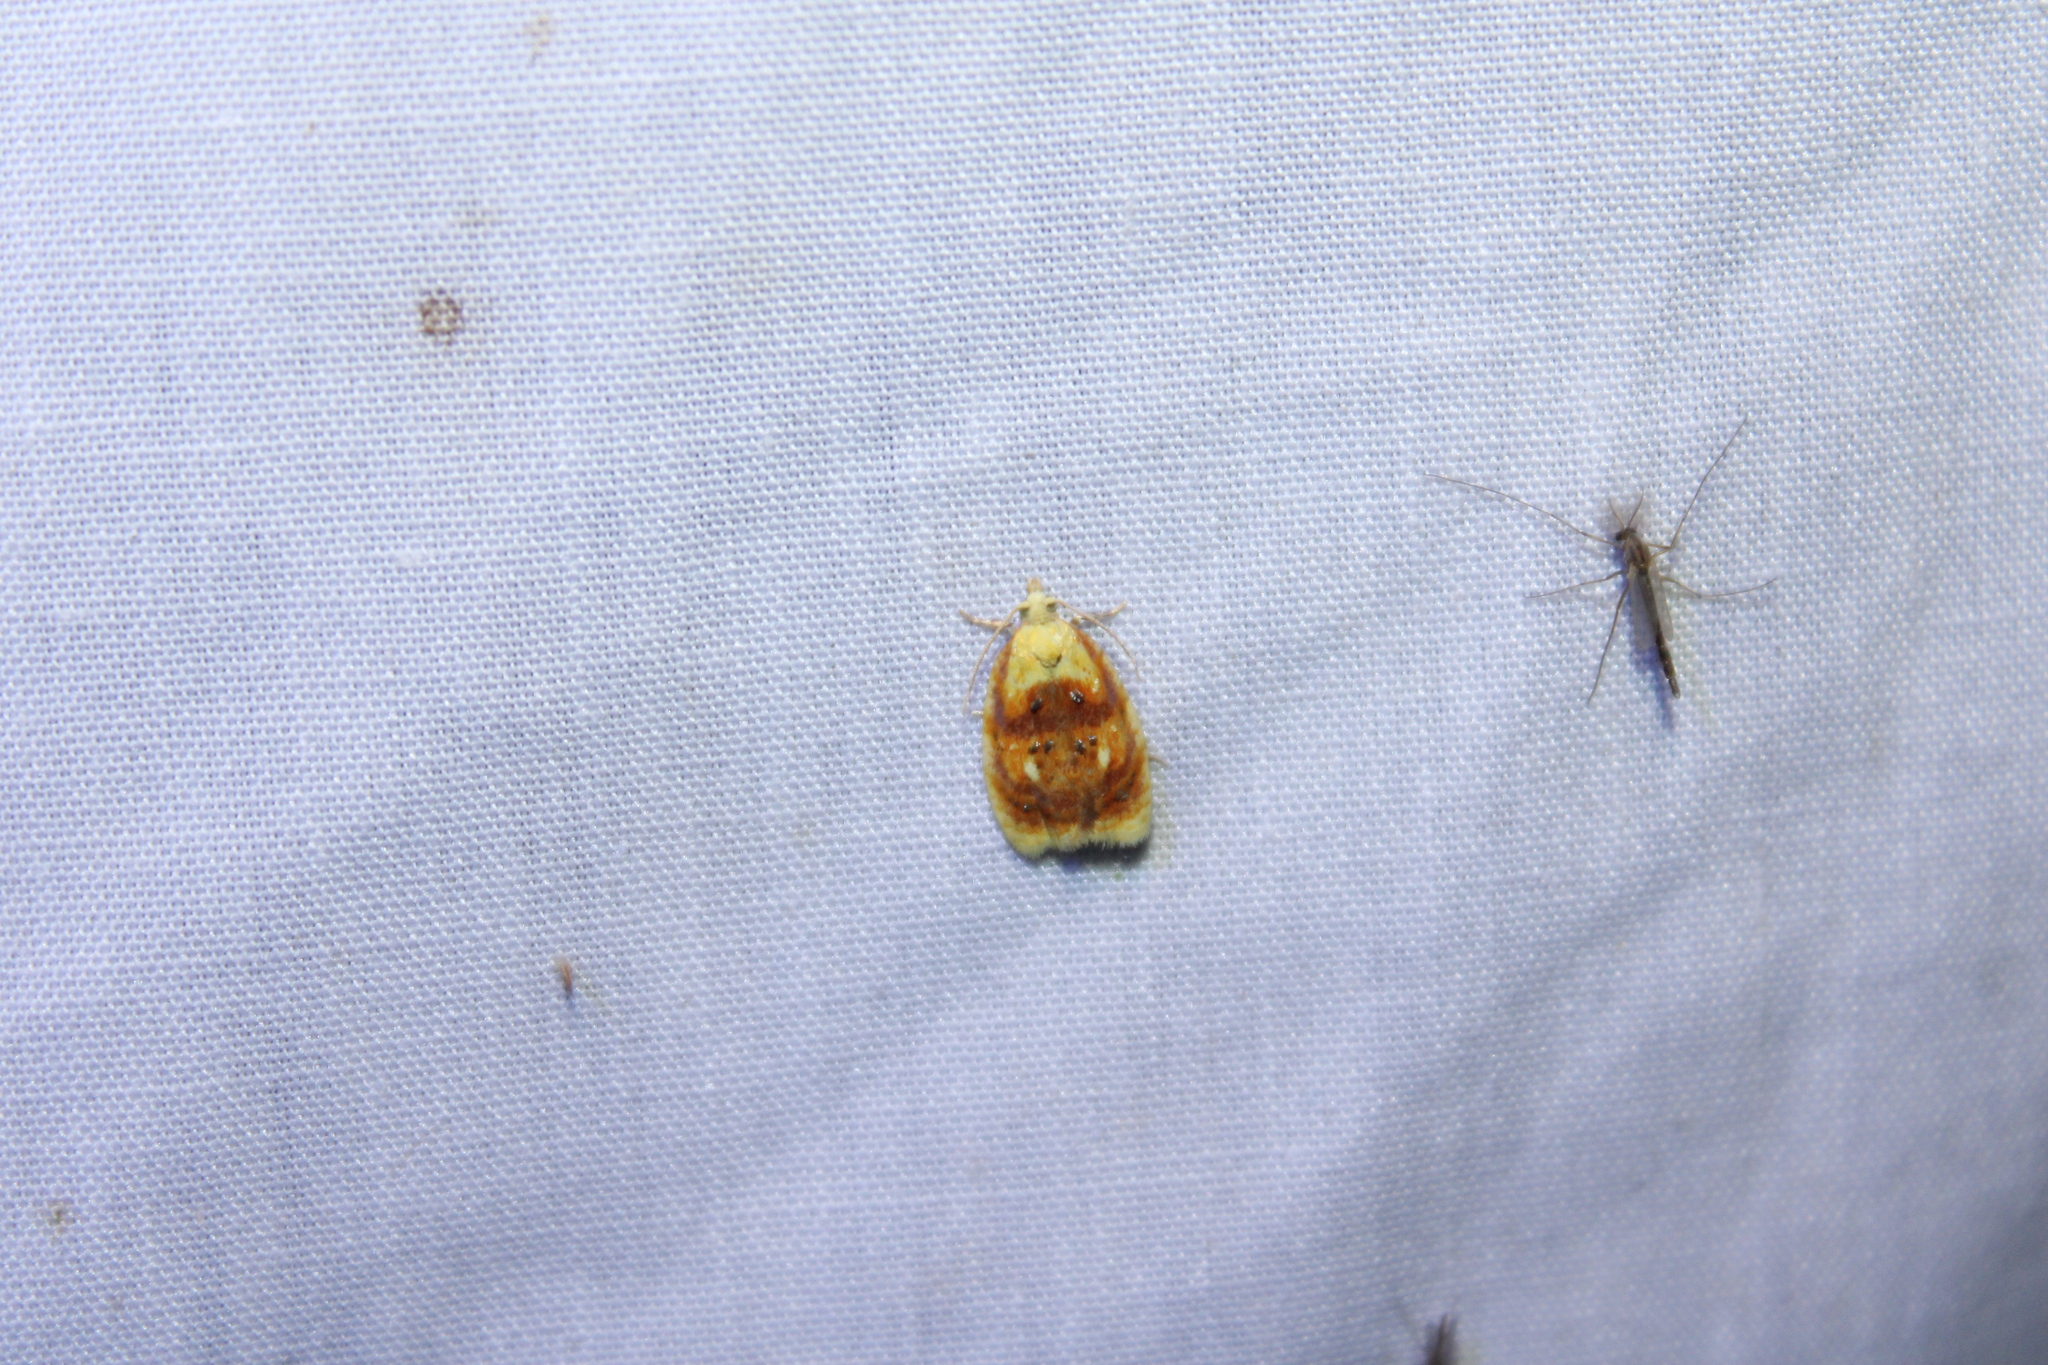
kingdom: Animalia
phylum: Arthropoda
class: Insecta
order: Lepidoptera
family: Tortricidae
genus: Acleris
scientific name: Acleris curvalana
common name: Blueberry leaftier moth
